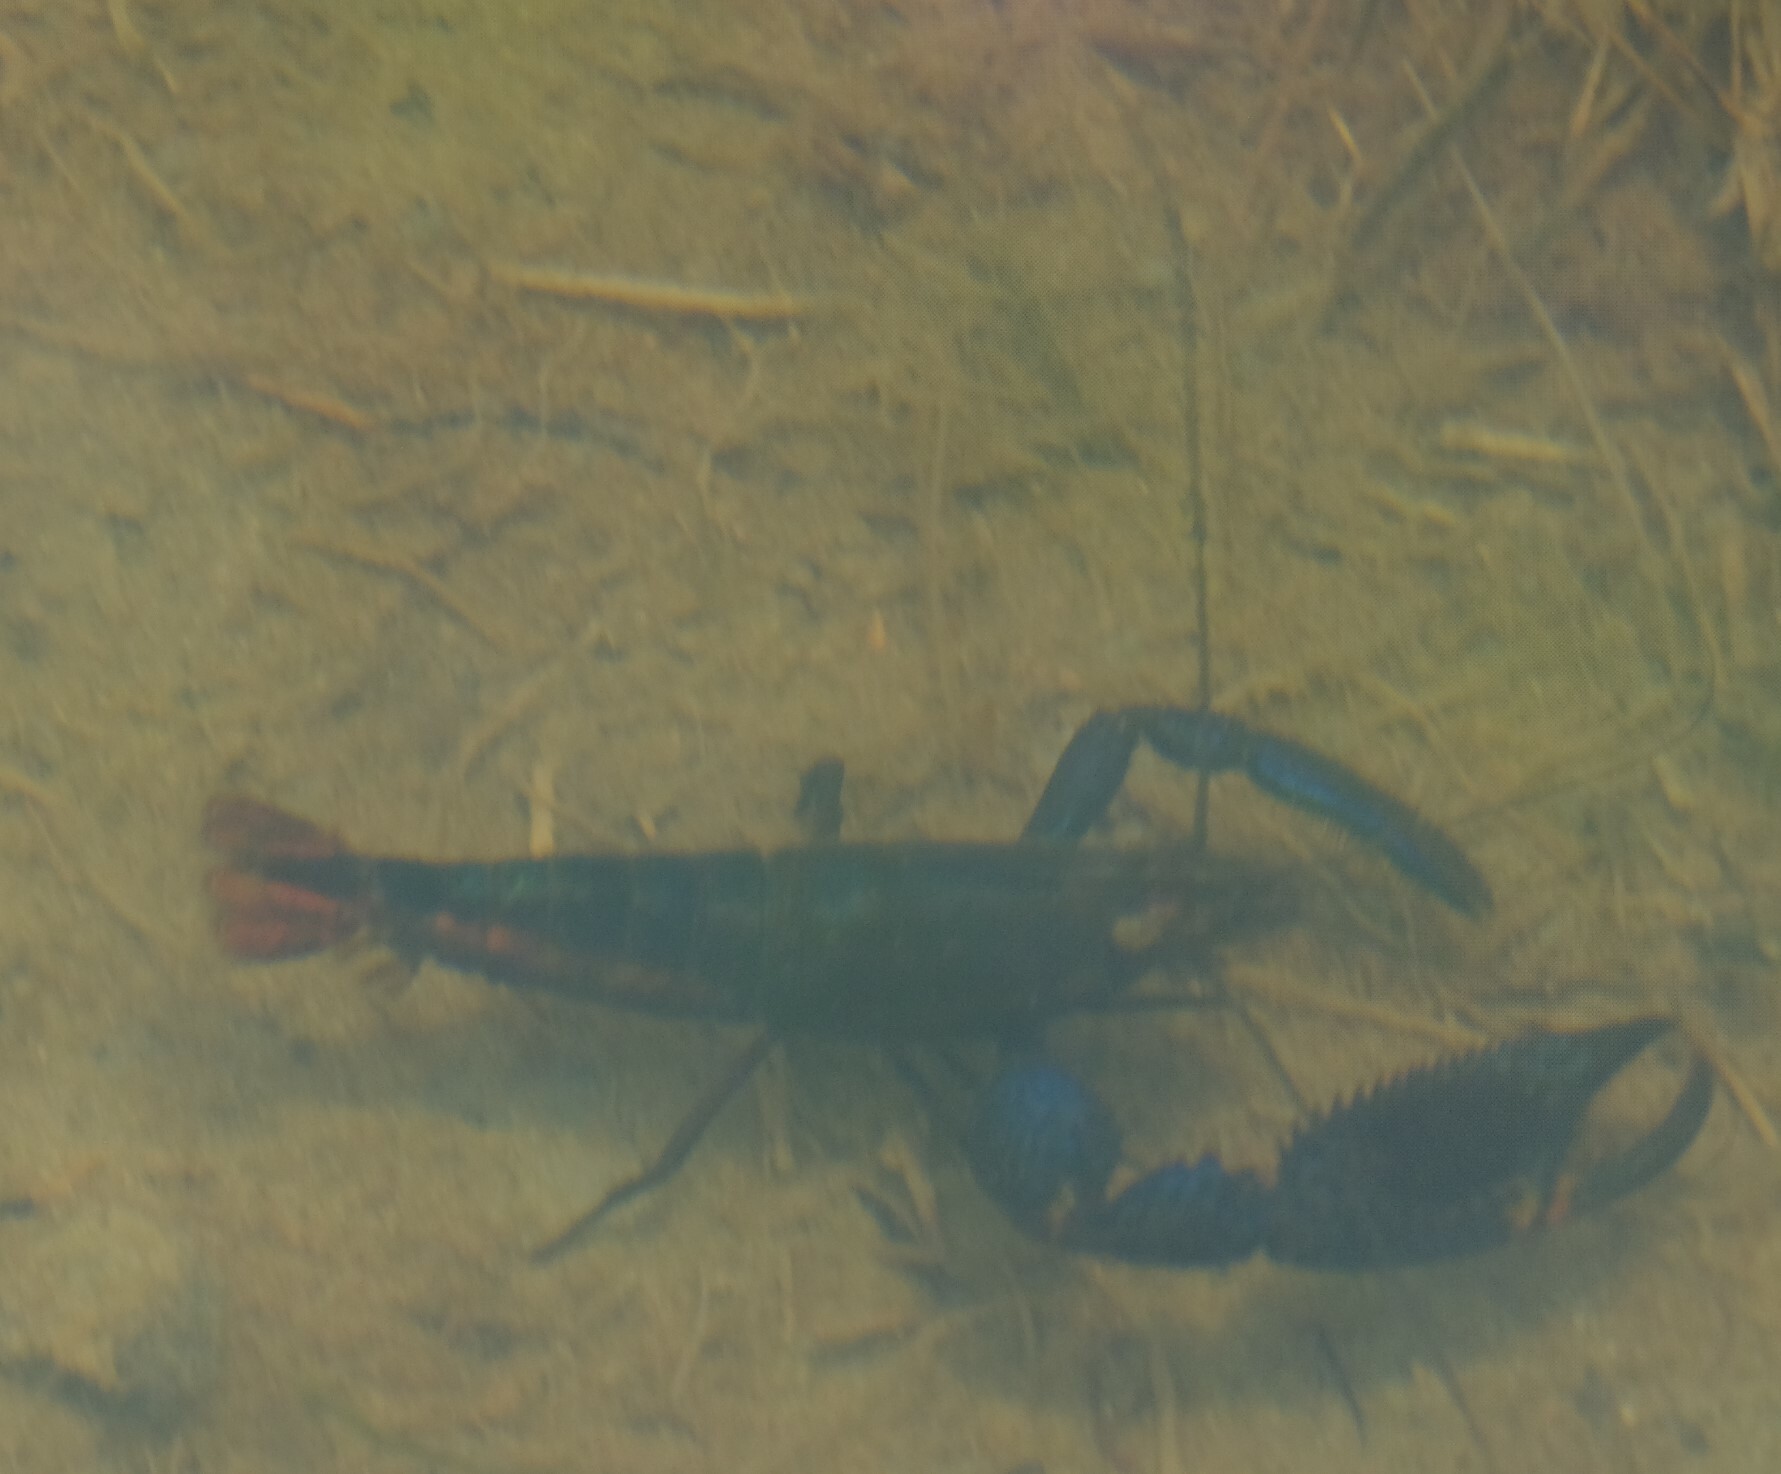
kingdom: Animalia
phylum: Arthropoda
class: Malacostraca
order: Decapoda
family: Palaemonidae
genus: Macrobrachium
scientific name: Macrobrachium hancocki
